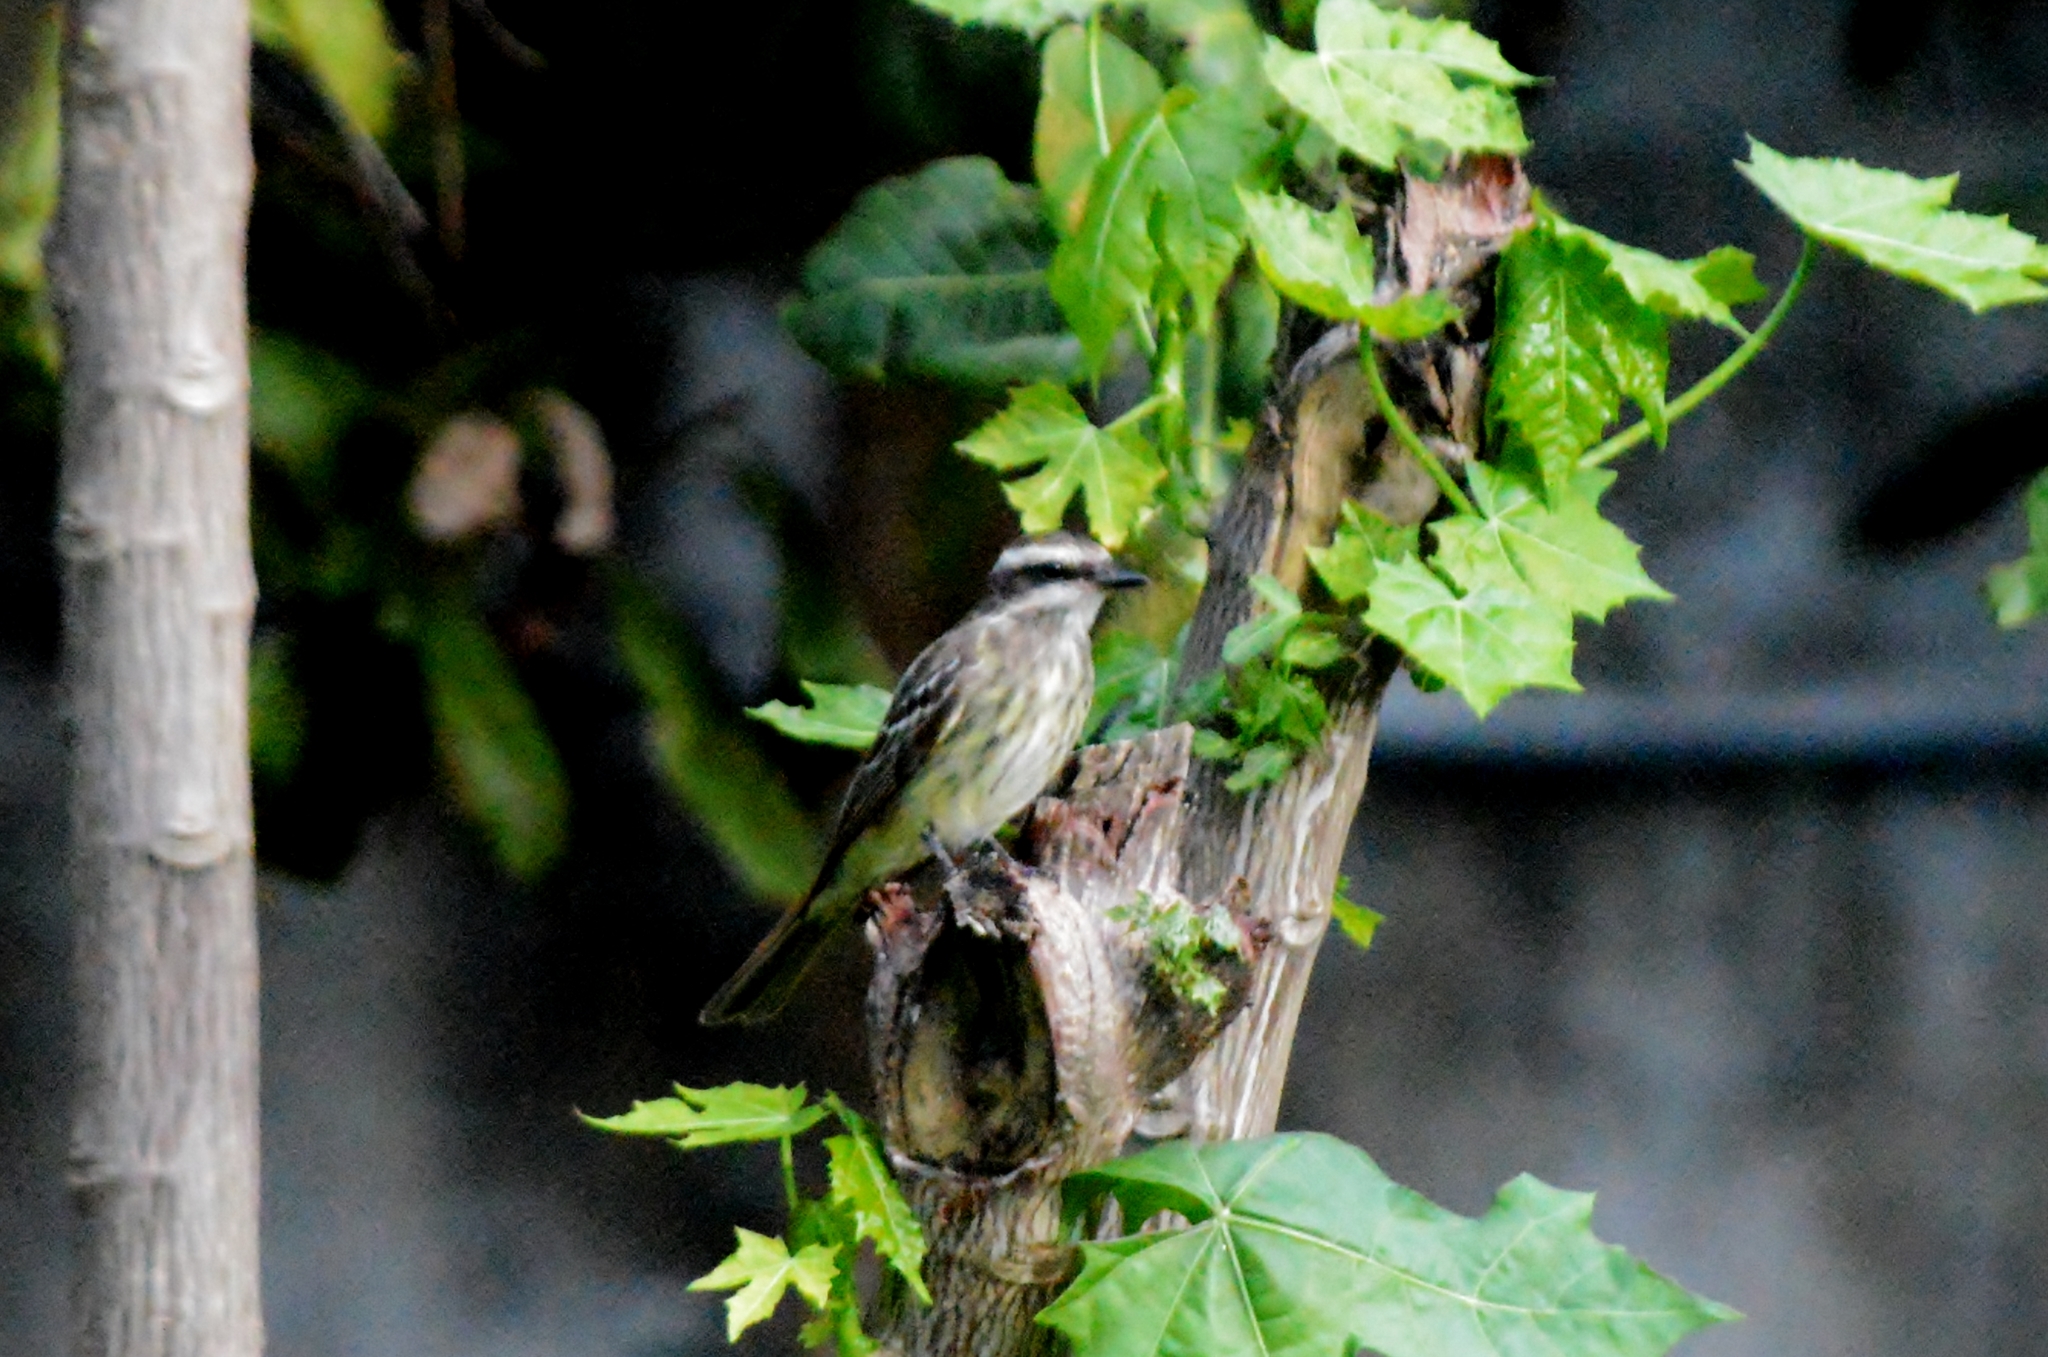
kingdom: Animalia
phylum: Chordata
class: Aves
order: Passeriformes
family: Tyrannidae
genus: Empidonomus
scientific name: Empidonomus varius
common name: Variegated flycatcher
